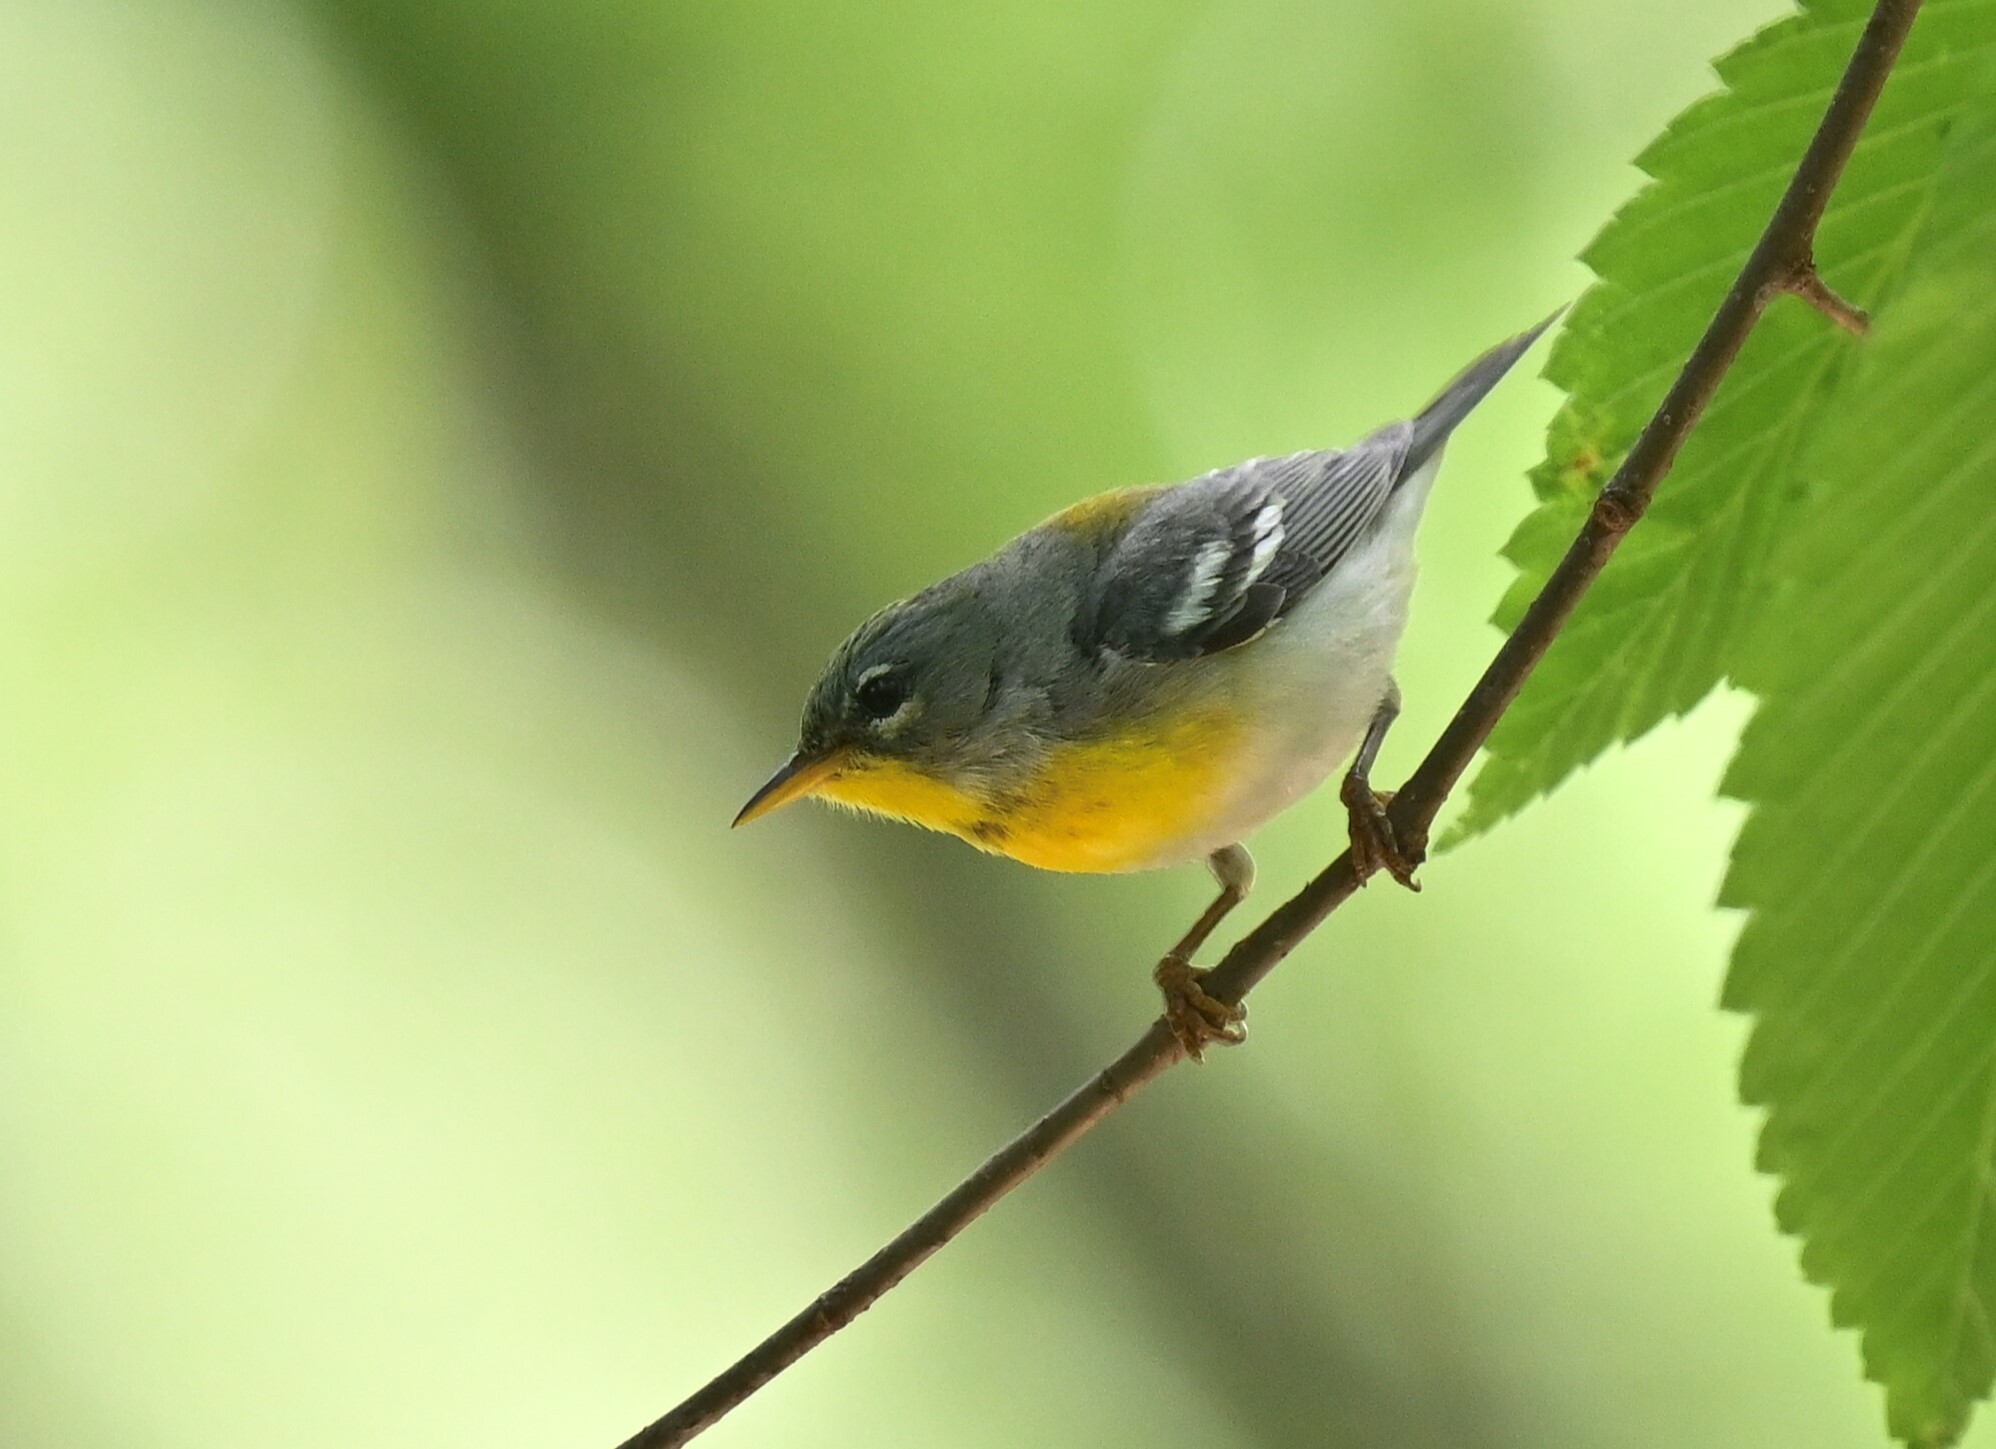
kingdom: Animalia
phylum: Chordata
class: Aves
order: Passeriformes
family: Parulidae
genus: Setophaga
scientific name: Setophaga americana
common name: Northern parula
